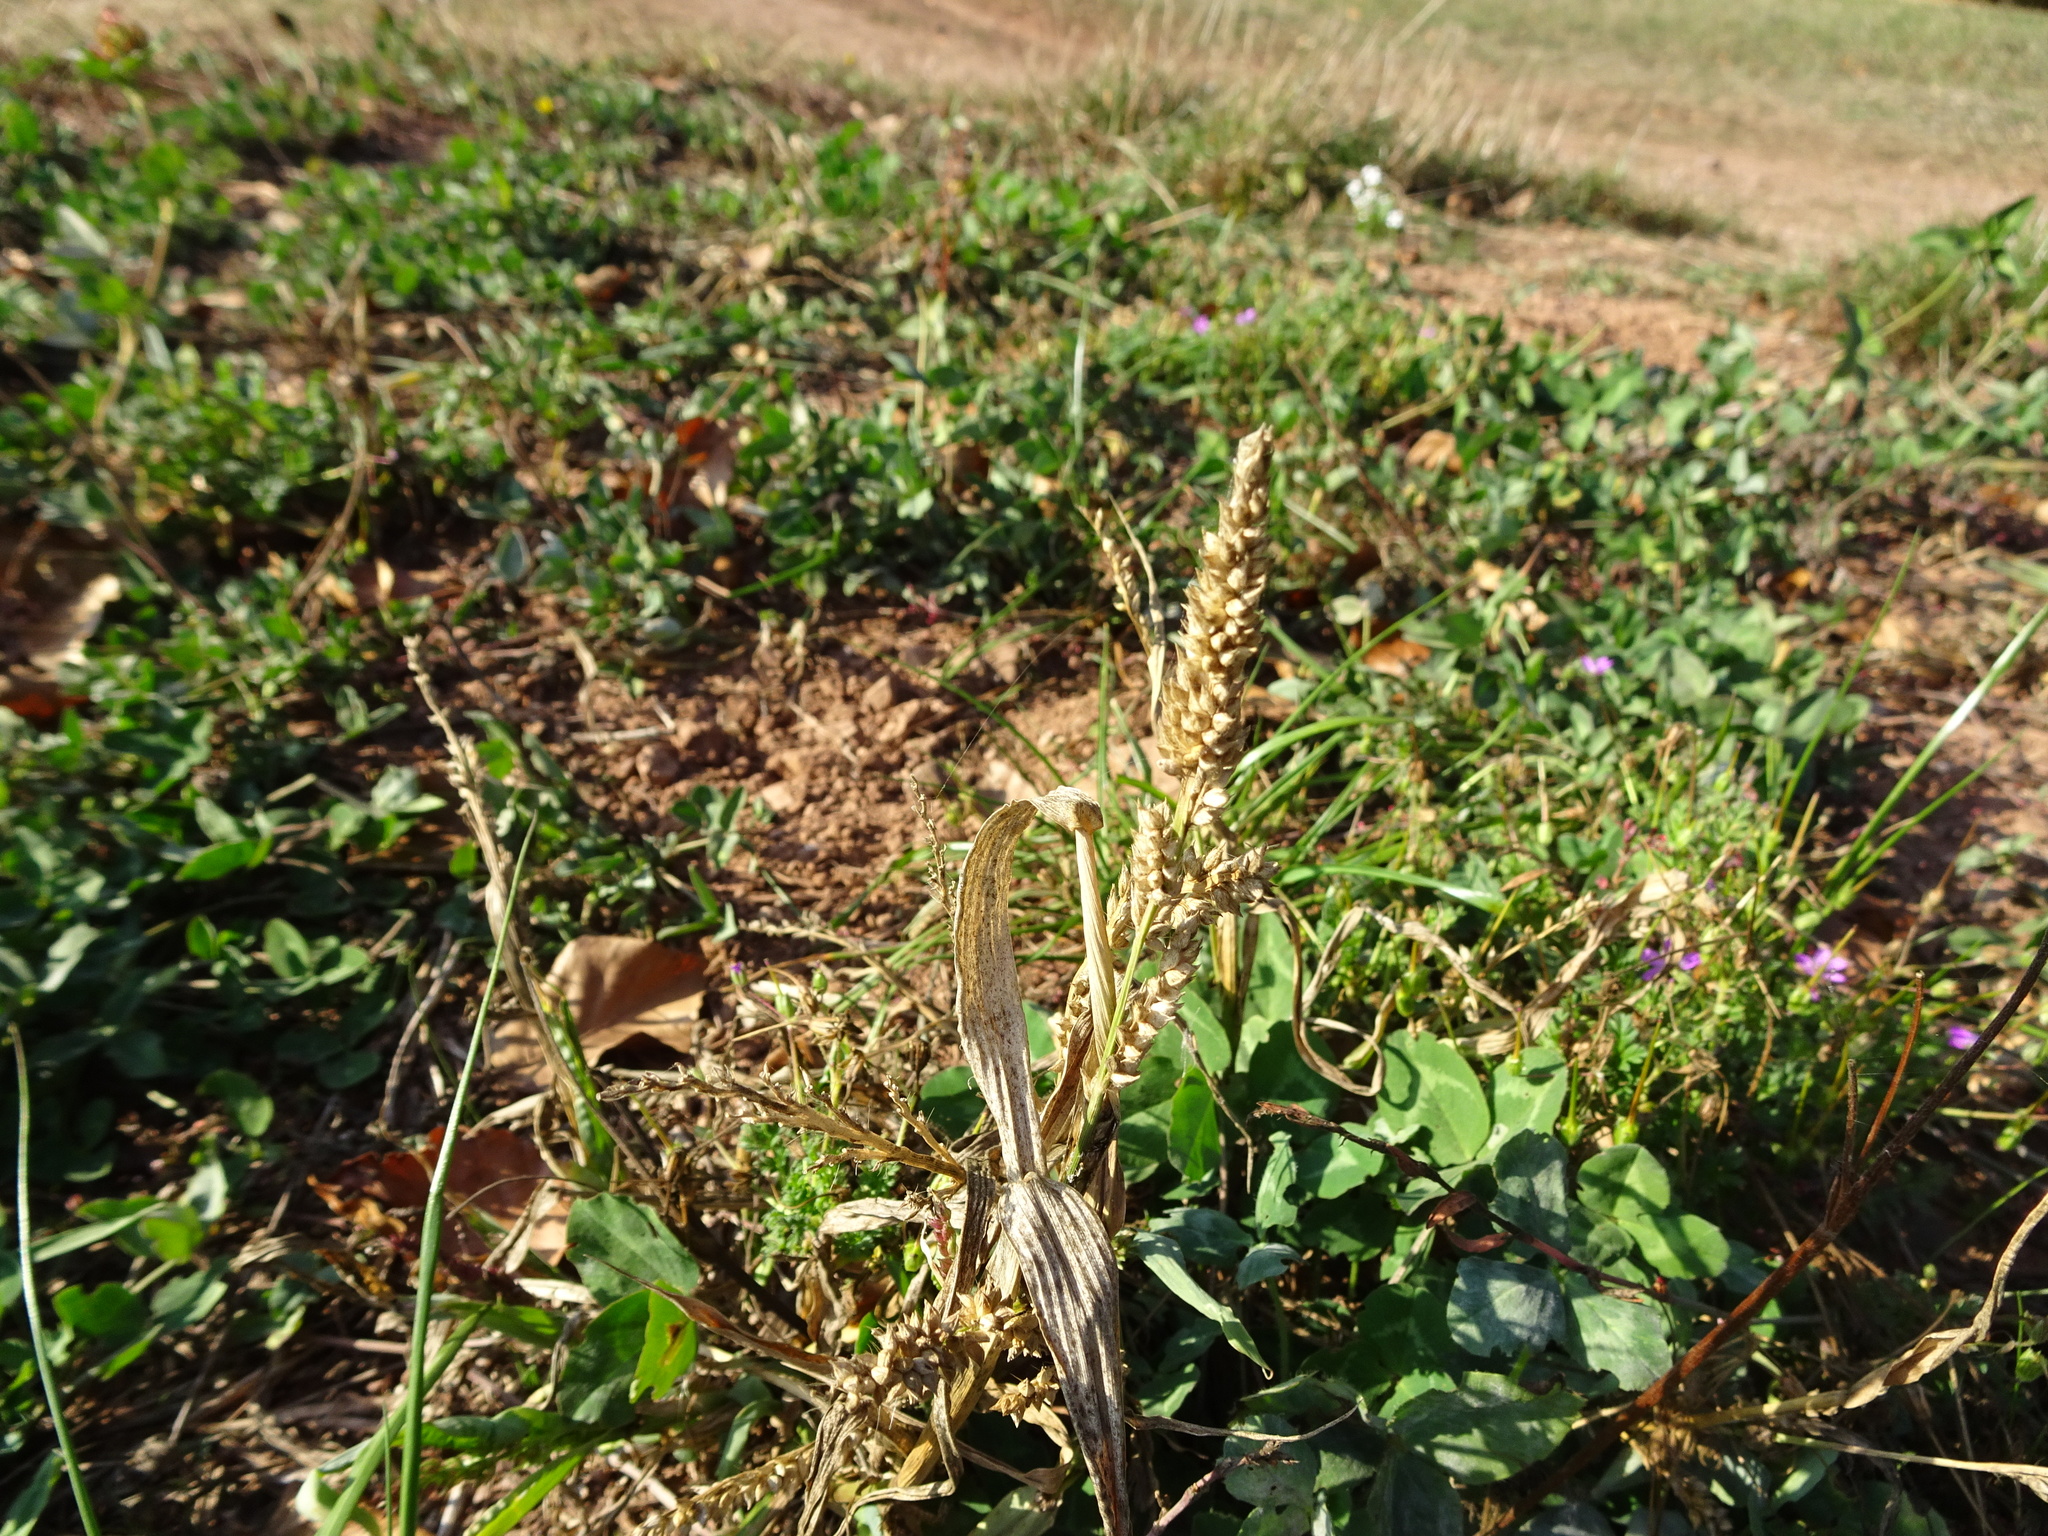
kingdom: Plantae
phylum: Tracheophyta
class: Liliopsida
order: Poales
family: Poaceae
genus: Echinochloa
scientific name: Echinochloa crus-galli
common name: Cockspur
